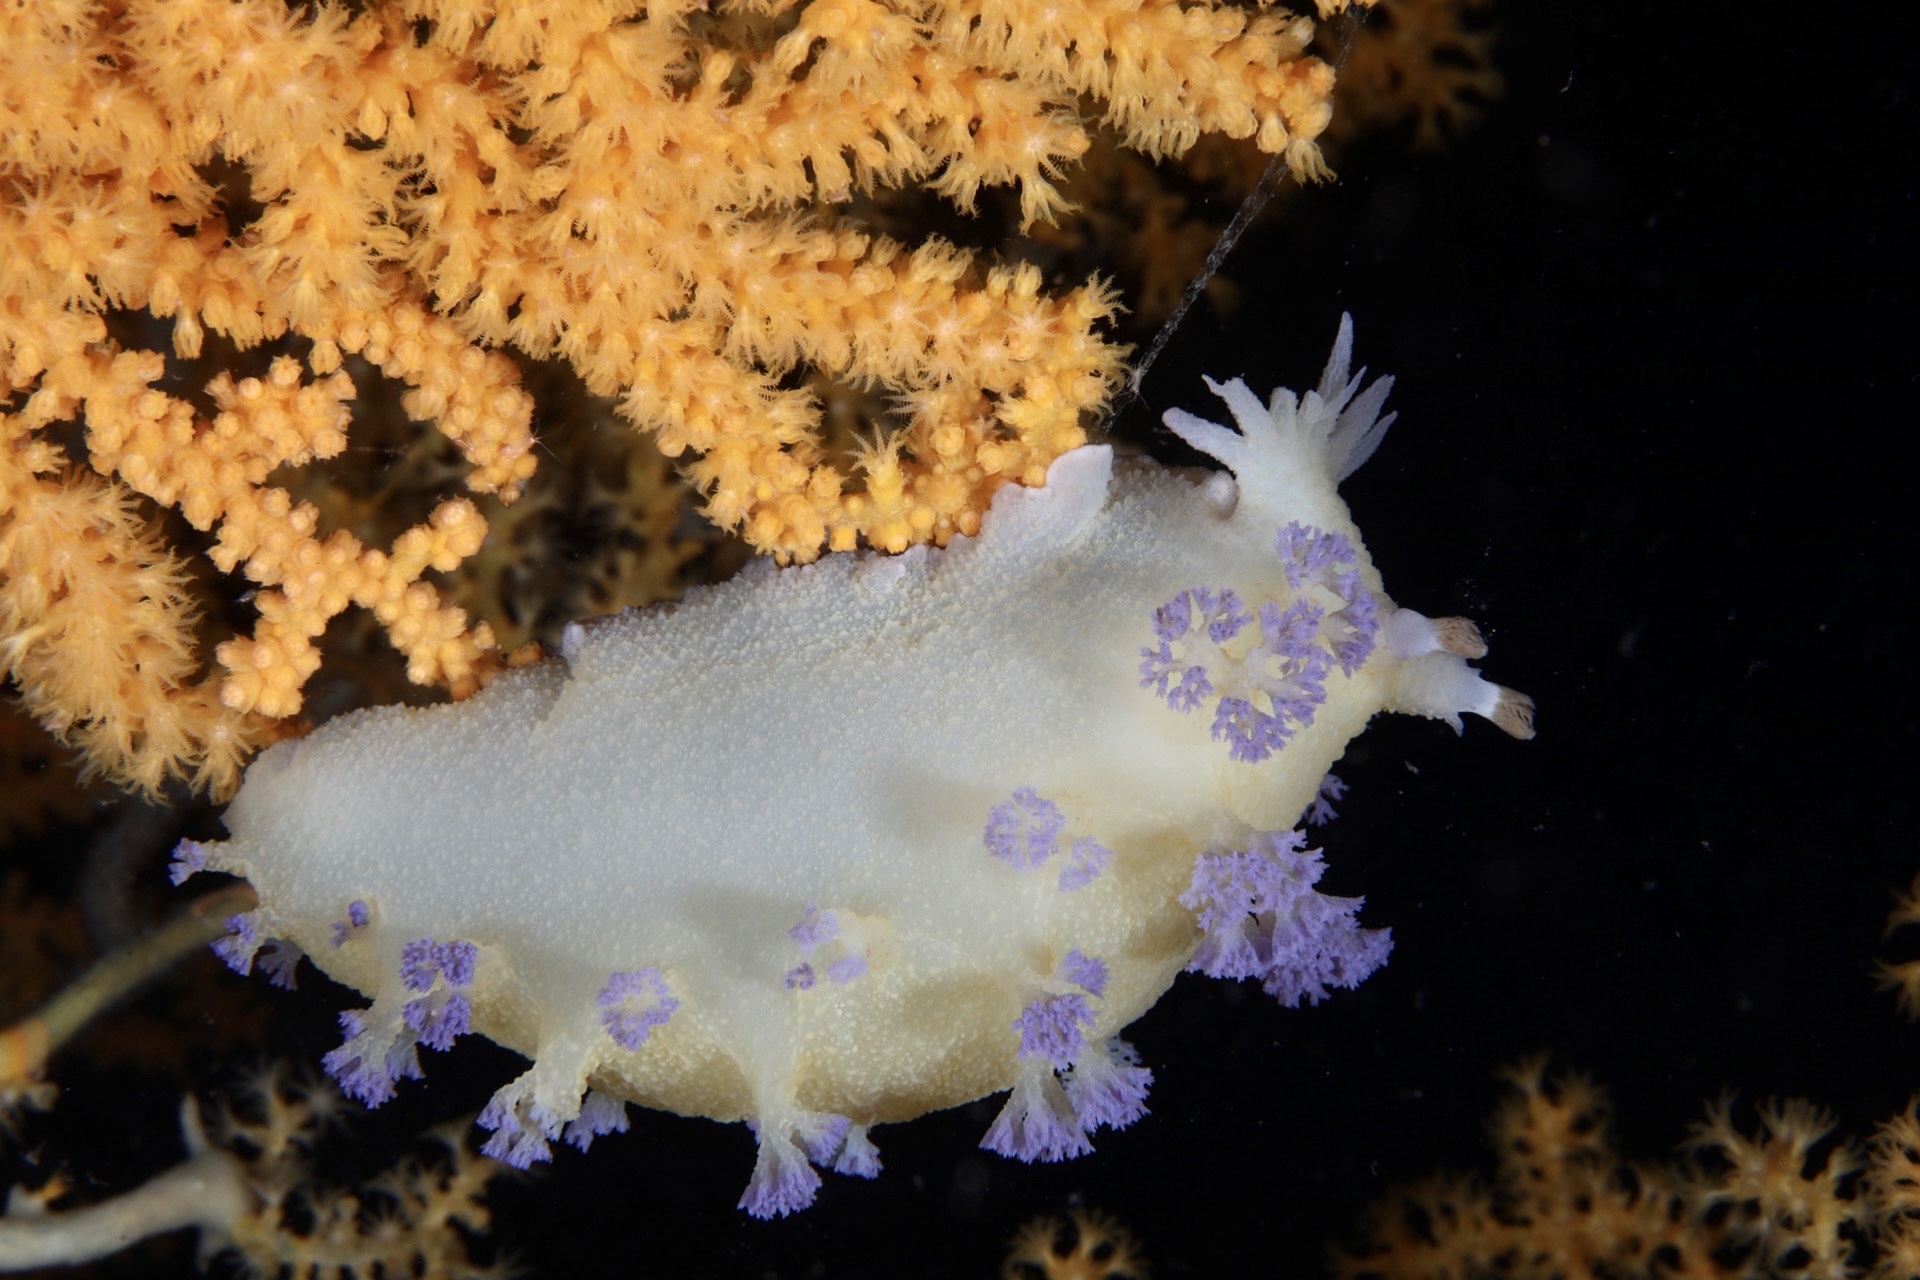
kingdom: Animalia
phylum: Mollusca
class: Gastropoda
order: Nudibranchia
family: Tritoniidae
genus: Tritonia
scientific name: Tritonia griegi
